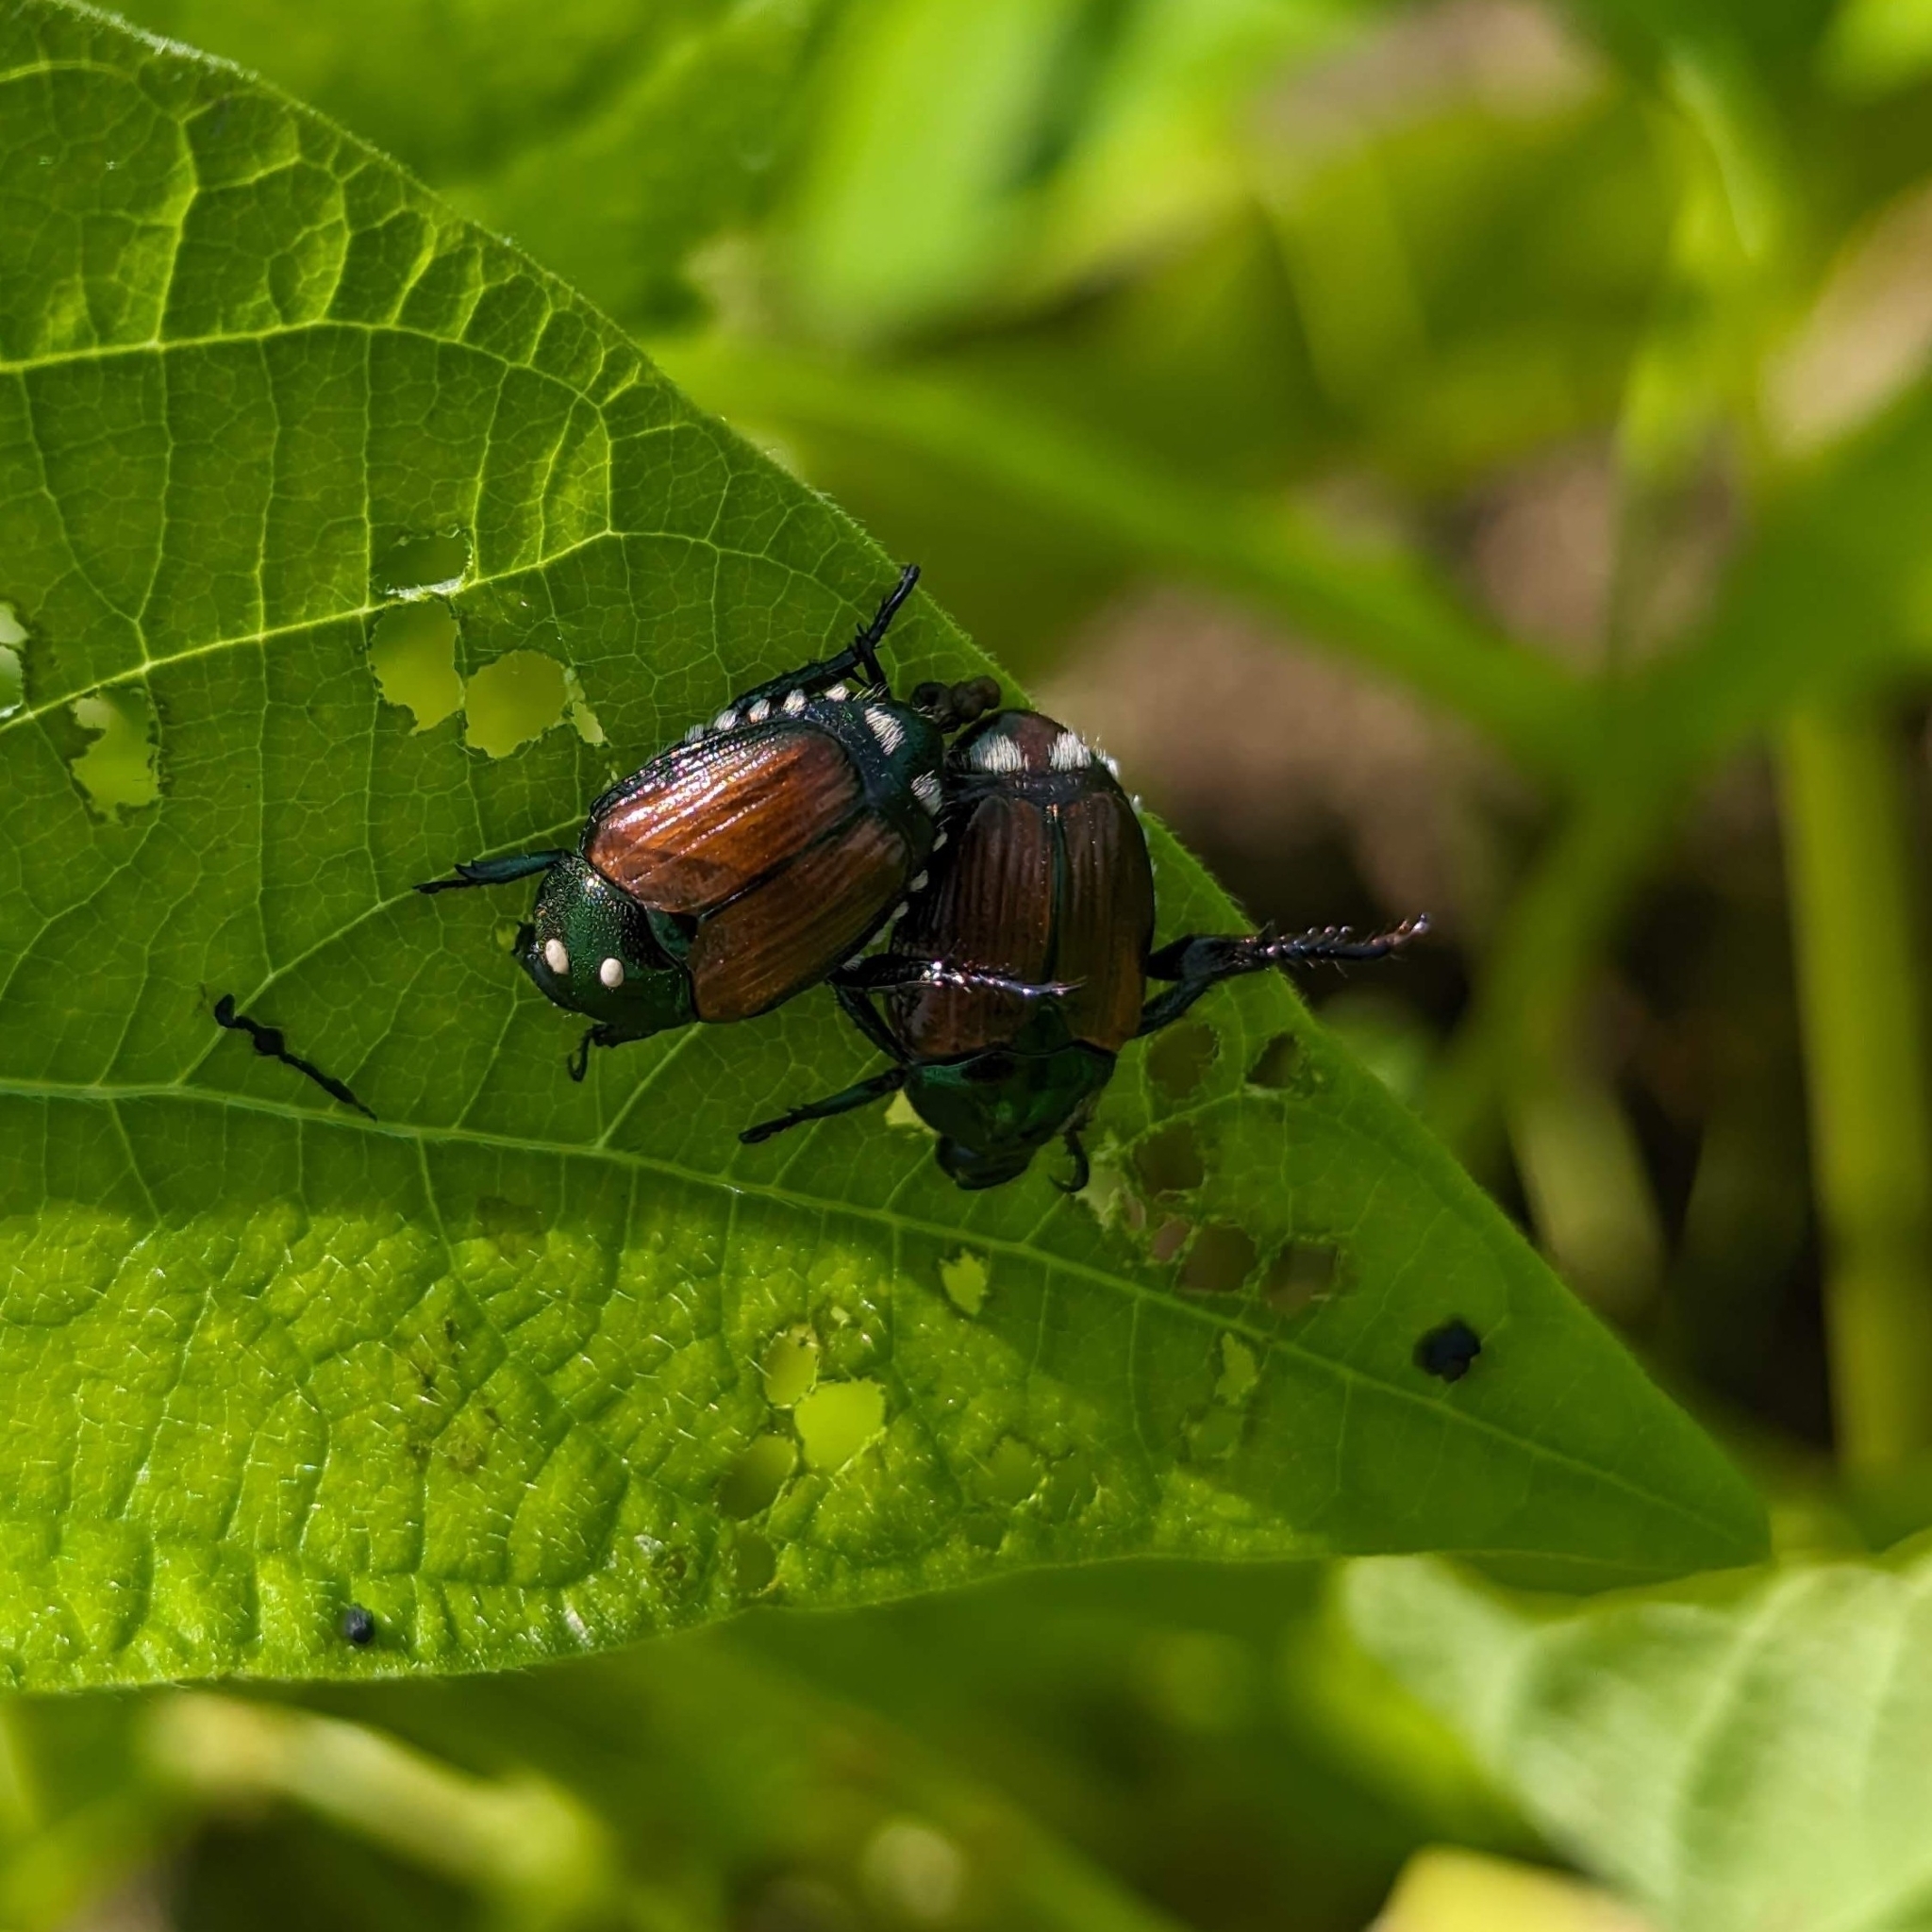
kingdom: Animalia
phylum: Arthropoda
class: Insecta
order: Coleoptera
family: Scarabaeidae
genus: Popillia
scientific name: Popillia japonica
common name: Japanese beetle
